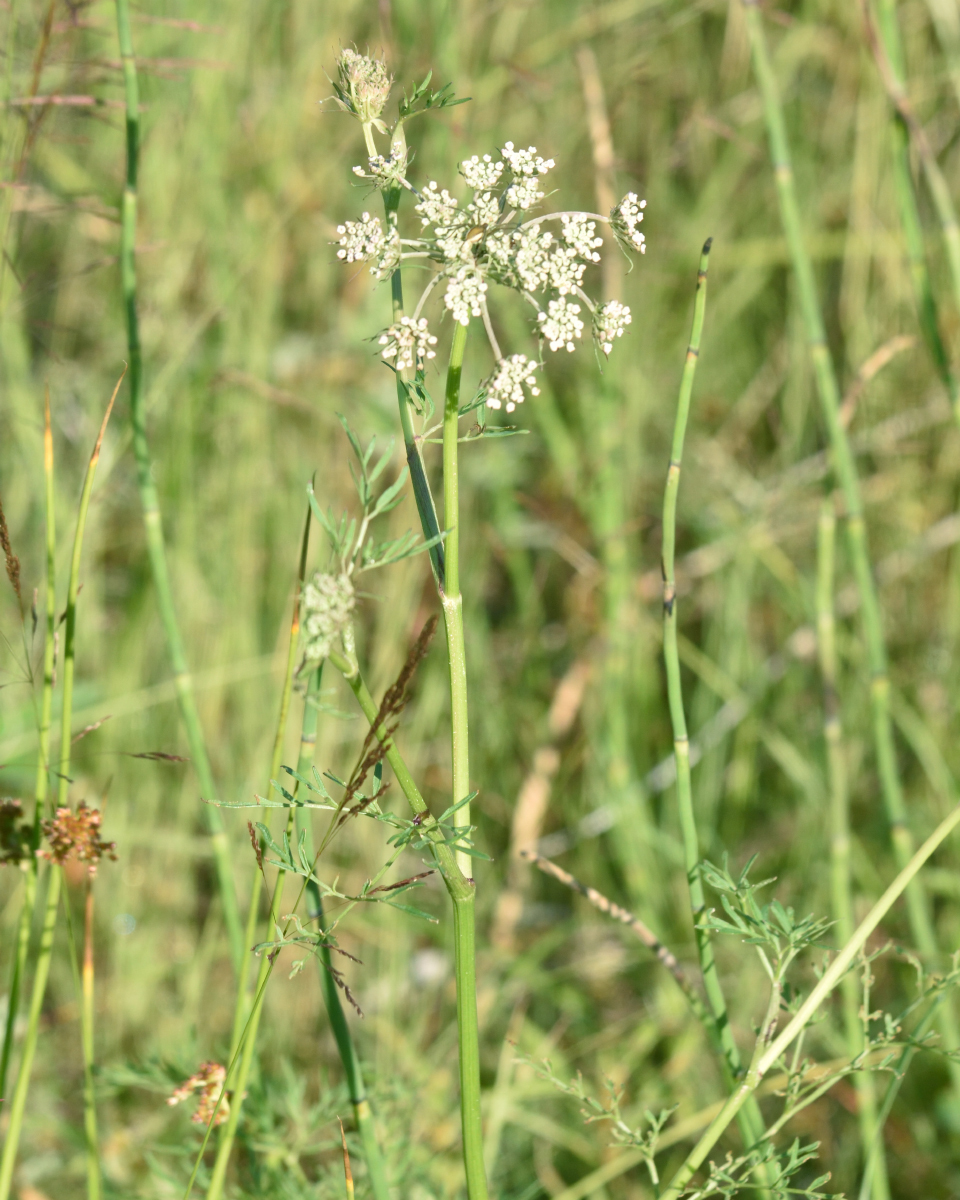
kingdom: Plantae
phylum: Tracheophyta
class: Magnoliopsida
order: Apiales
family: Apiaceae
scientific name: Apiaceae
